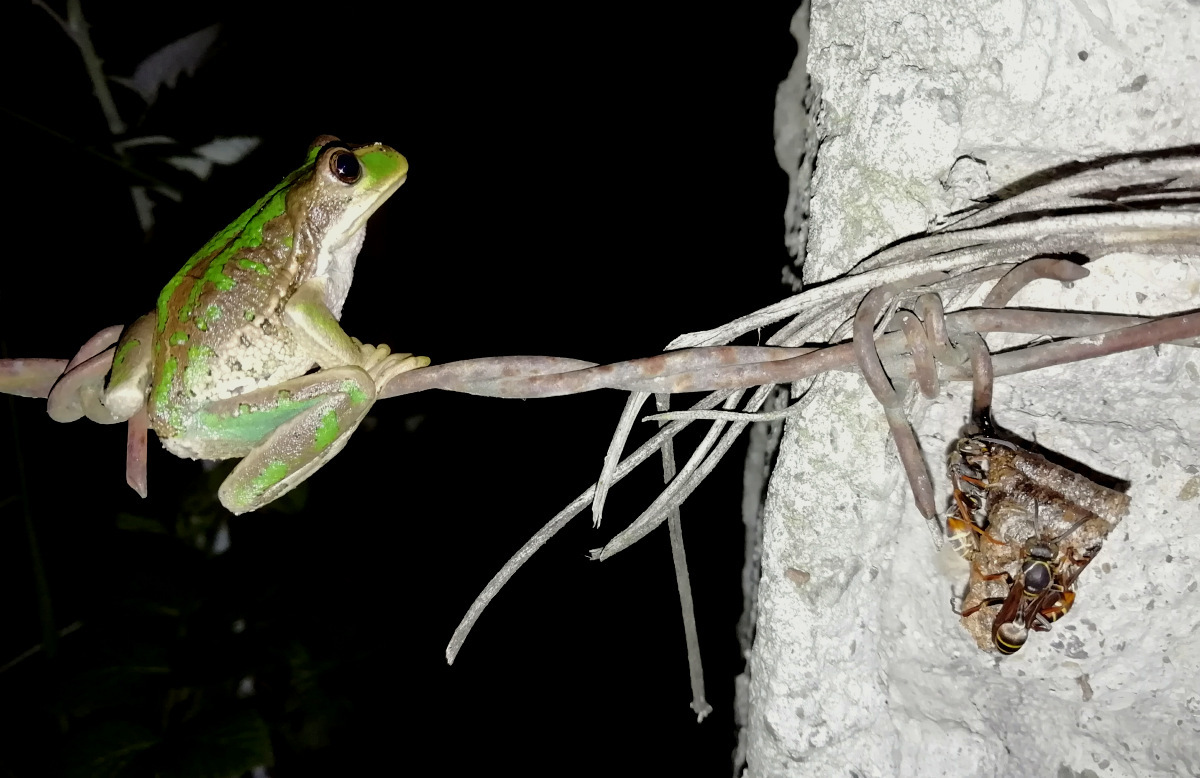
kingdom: Animalia
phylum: Chordata
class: Amphibia
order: Anura
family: Hemiphractidae
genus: Gastrotheca
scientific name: Gastrotheca cuencana
